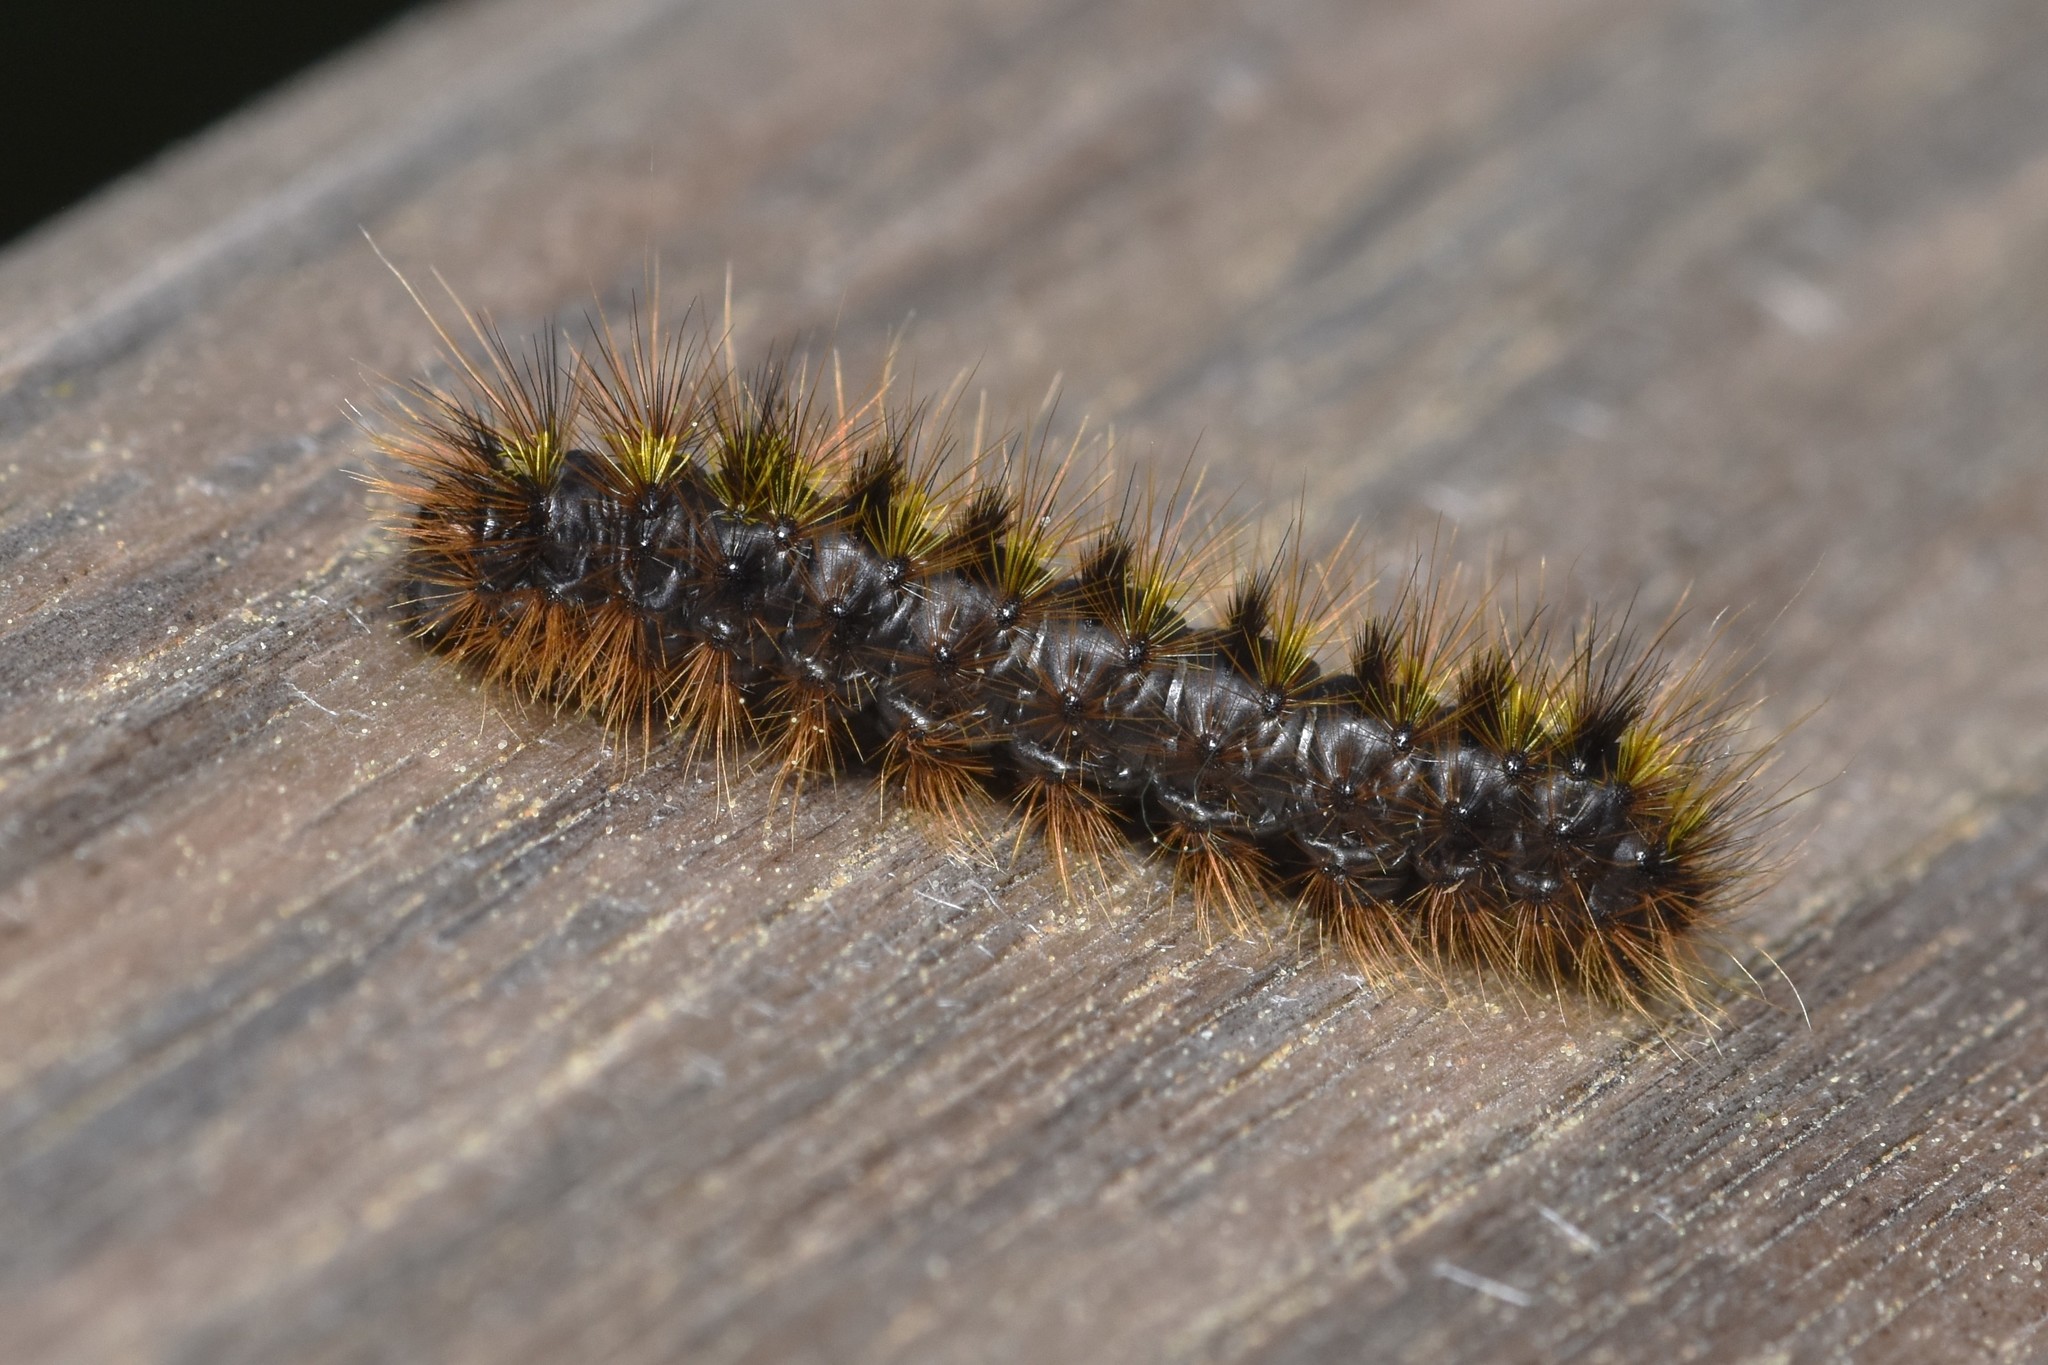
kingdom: Animalia
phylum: Arthropoda
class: Insecta
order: Lepidoptera
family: Erebidae
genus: Lophocampa
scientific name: Lophocampa argentata
